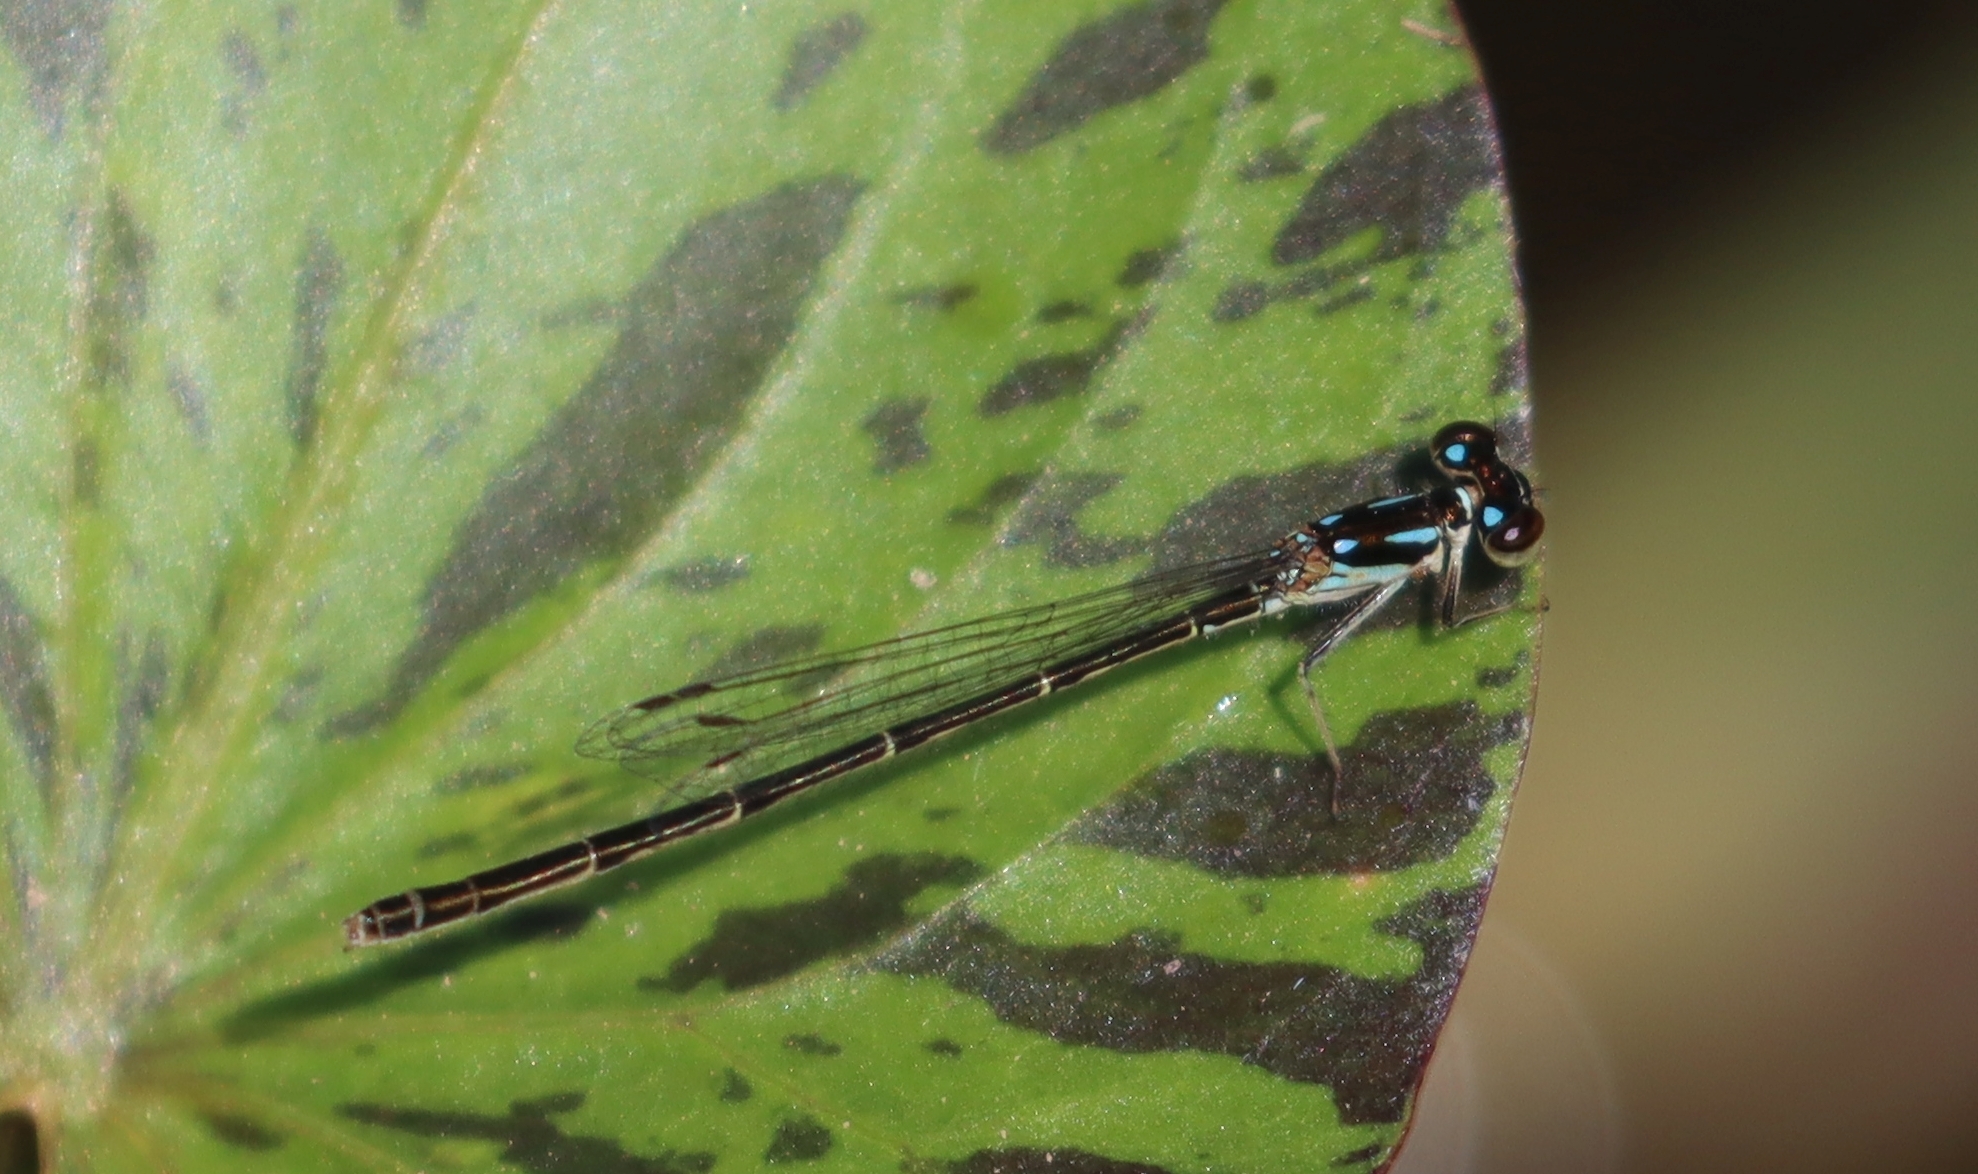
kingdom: Animalia
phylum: Arthropoda
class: Insecta
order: Odonata
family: Coenagrionidae
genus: Ischnura
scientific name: Ischnura posita
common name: Fragile forktail
